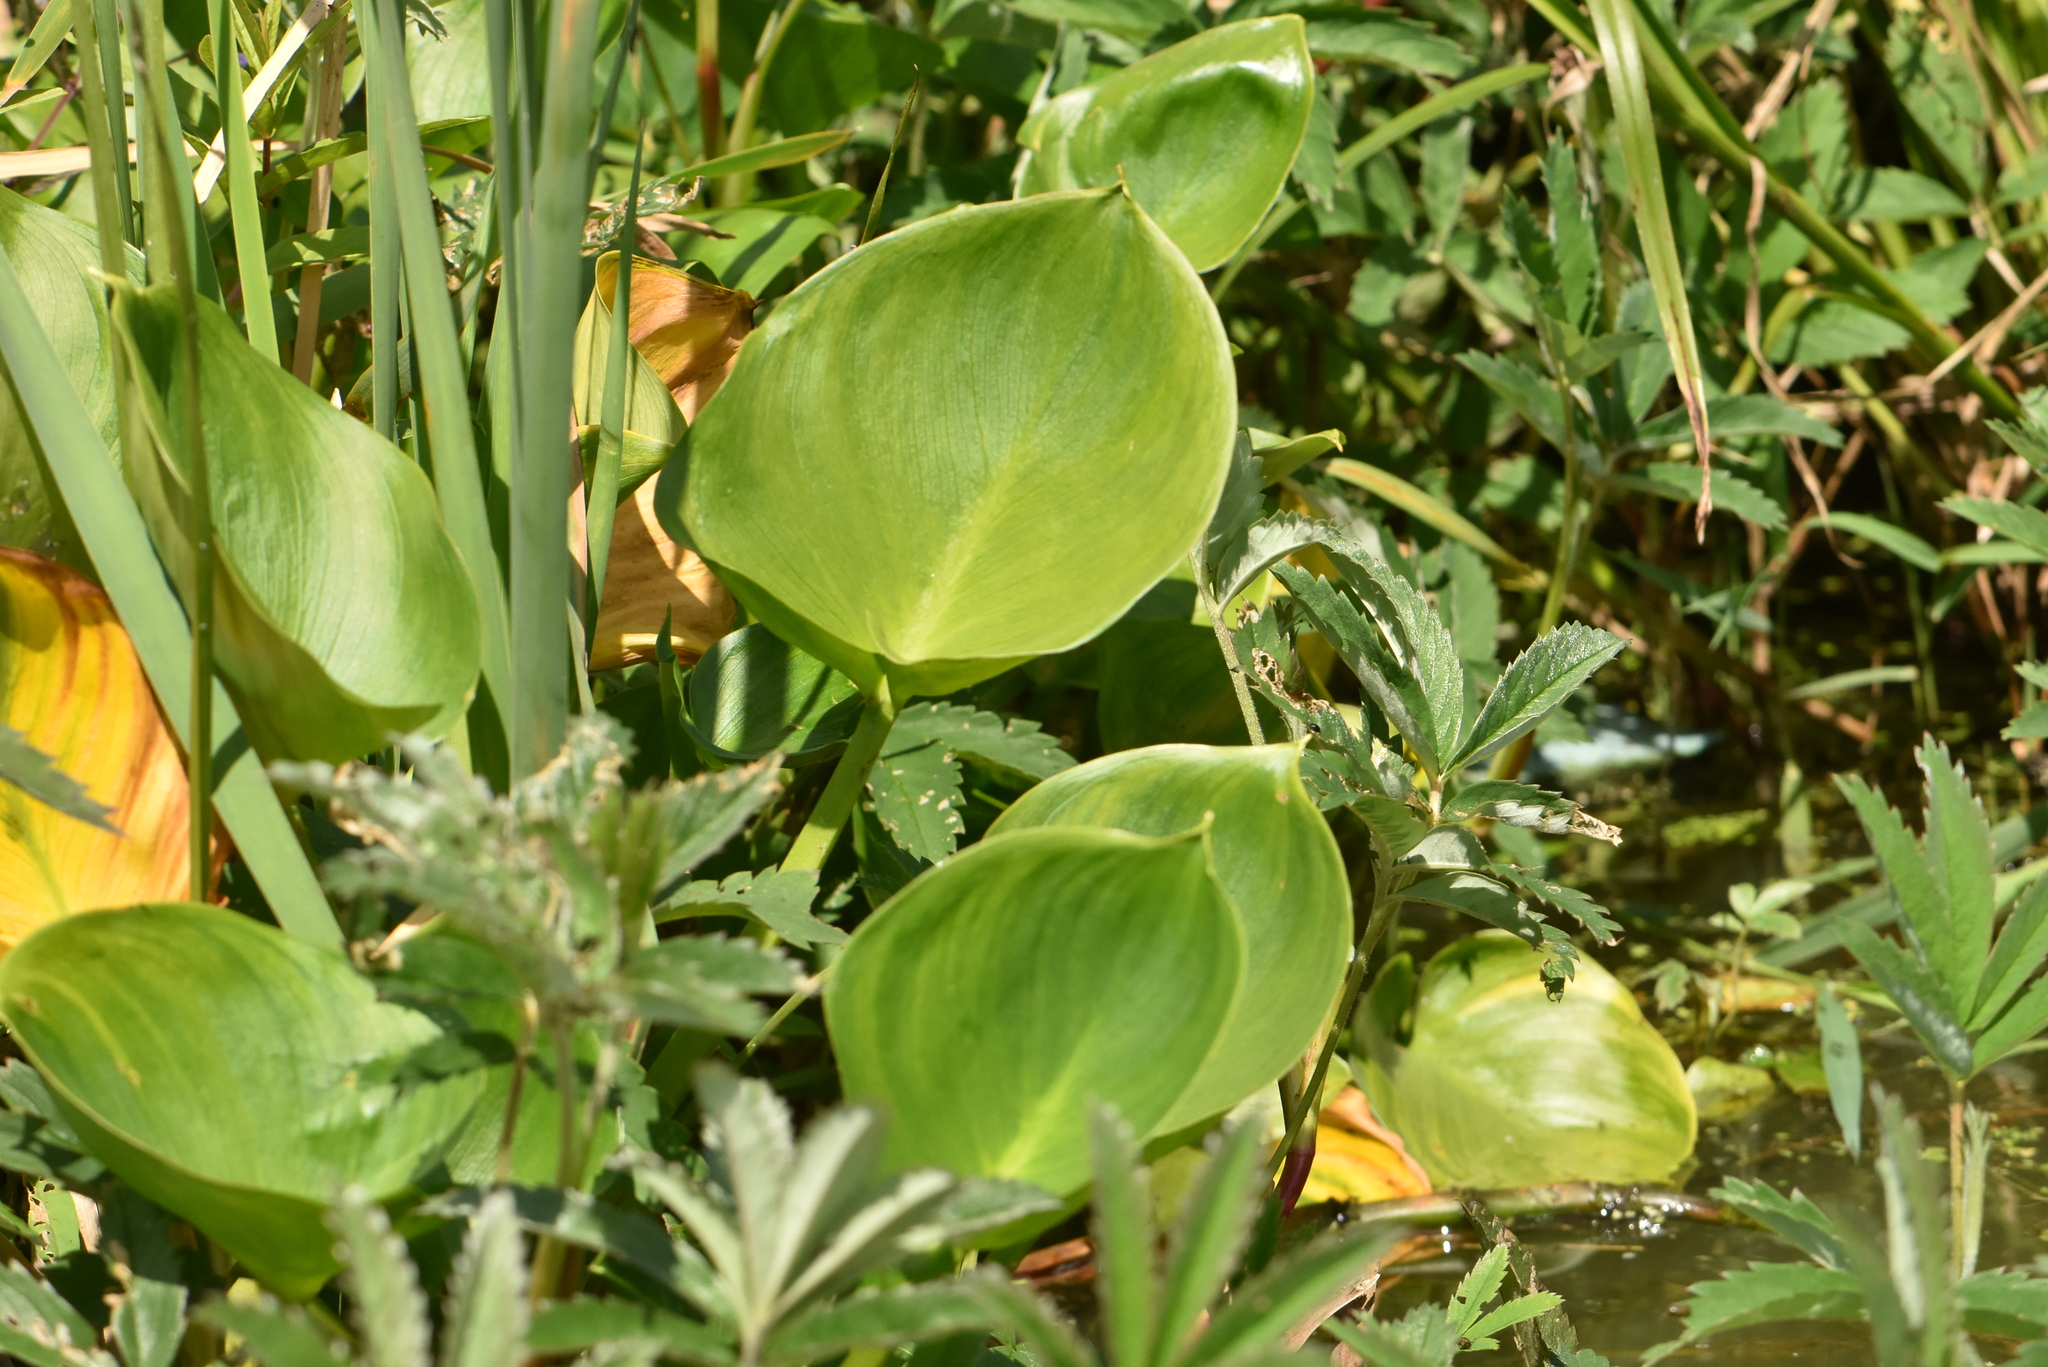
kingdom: Plantae
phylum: Tracheophyta
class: Liliopsida
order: Alismatales
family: Araceae
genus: Calla
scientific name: Calla palustris
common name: Bog arum
